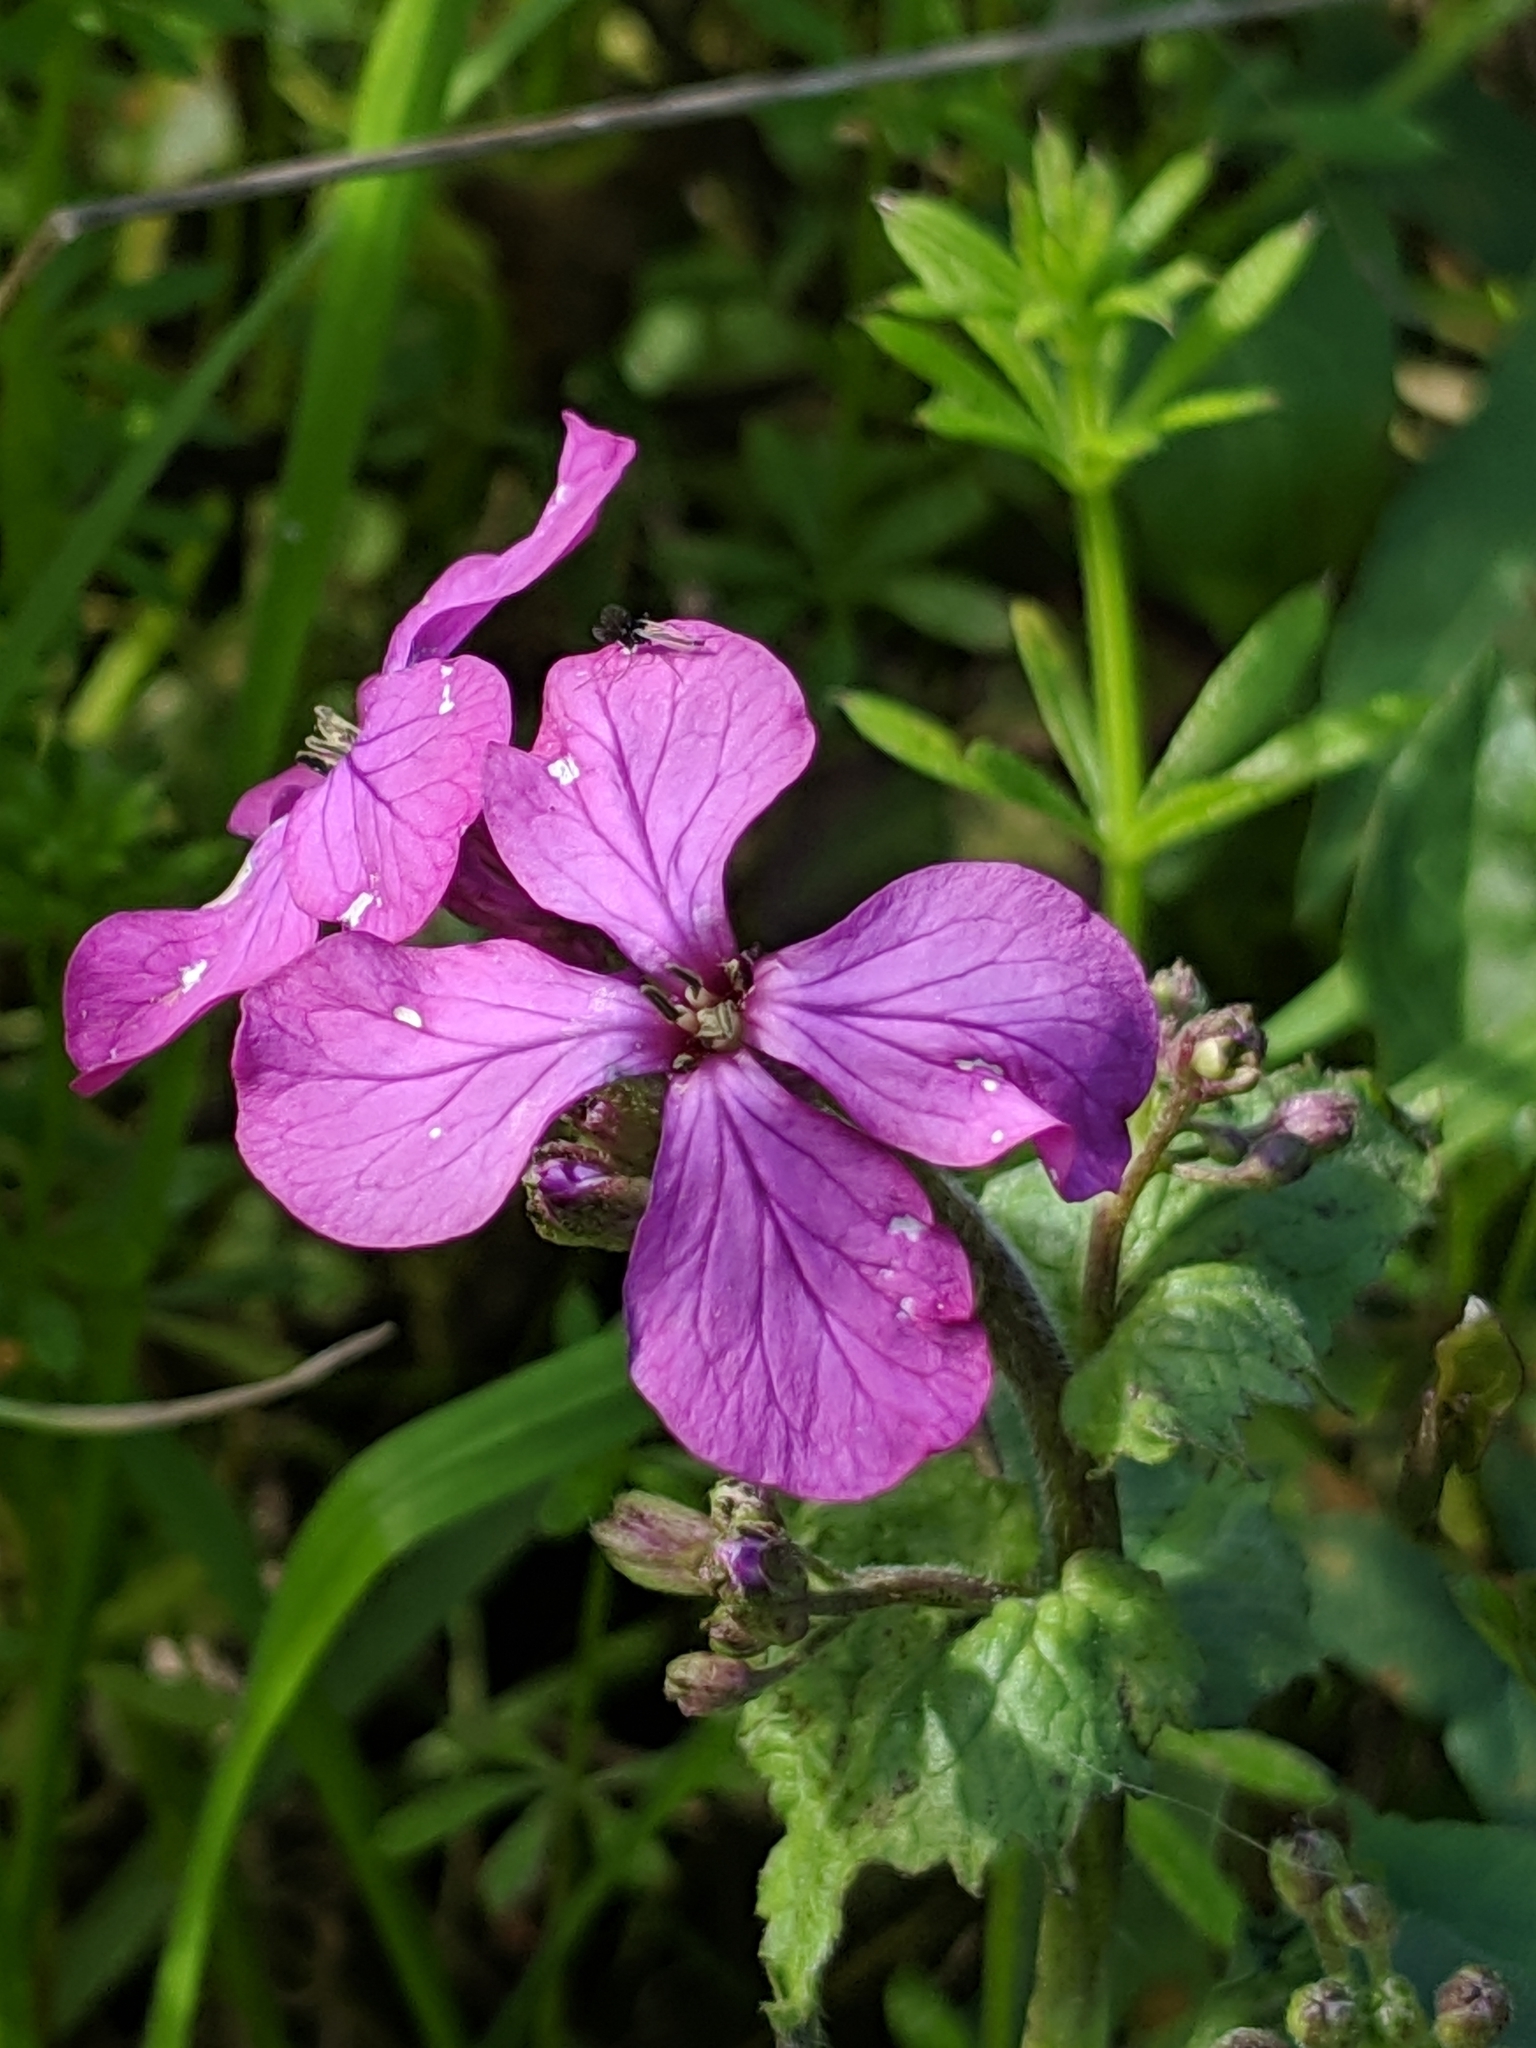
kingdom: Plantae
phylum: Tracheophyta
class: Magnoliopsida
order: Brassicales
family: Brassicaceae
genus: Lunaria
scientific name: Lunaria annua
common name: Honesty
